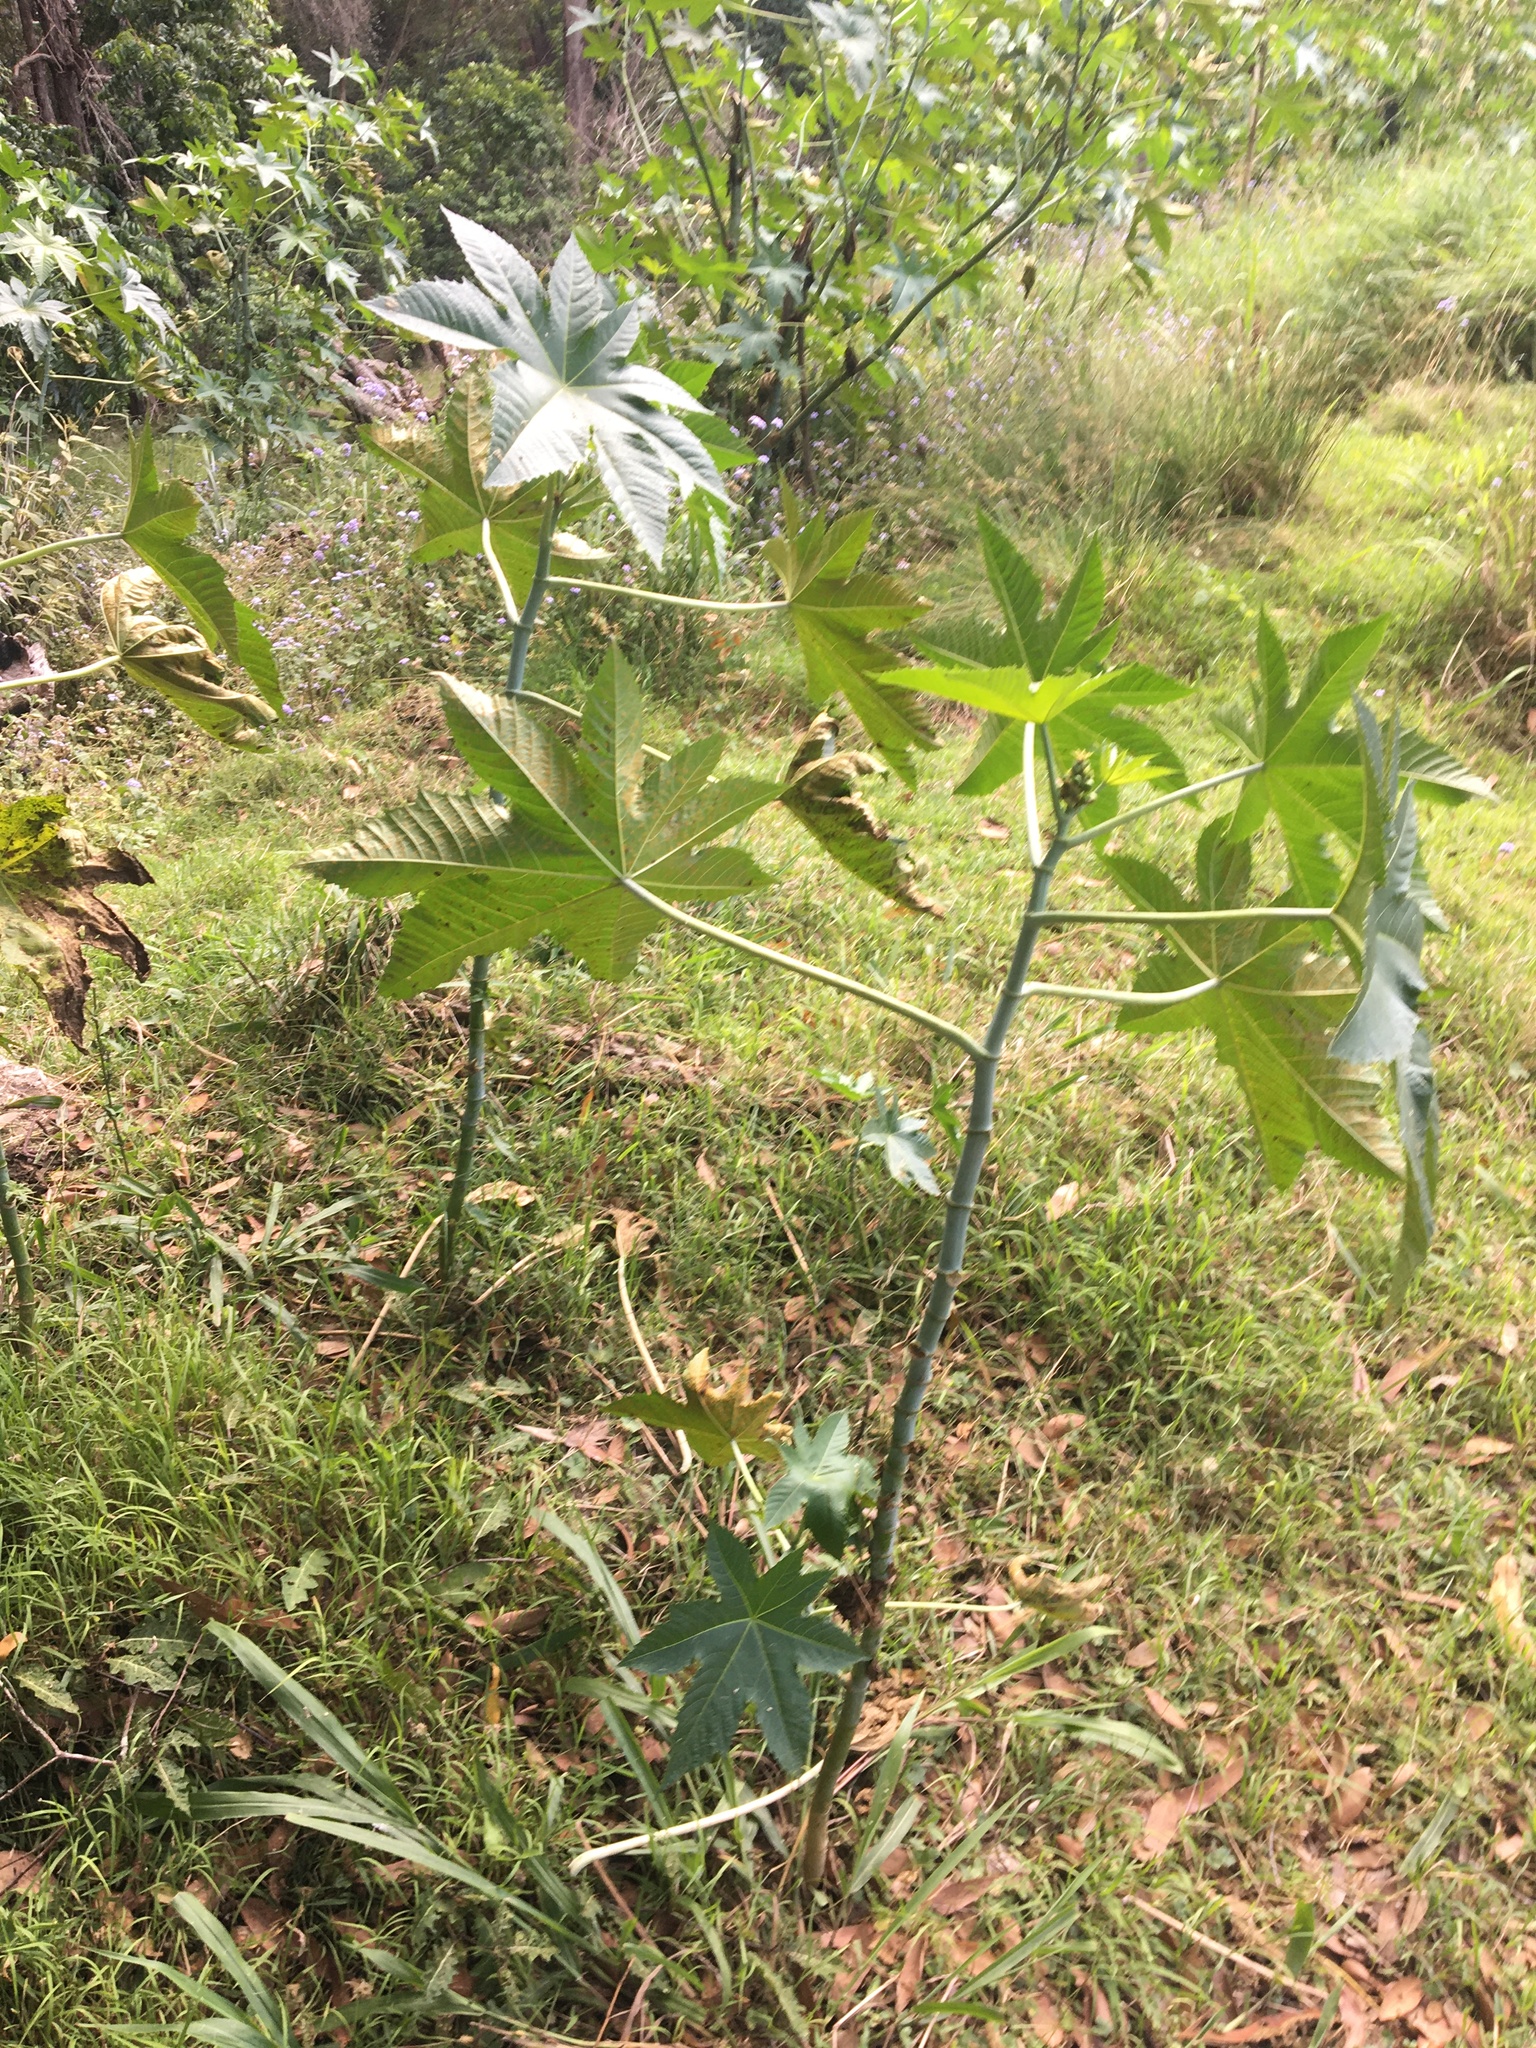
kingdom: Plantae
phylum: Tracheophyta
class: Magnoliopsida
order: Malpighiales
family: Euphorbiaceae
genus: Ricinus
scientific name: Ricinus communis
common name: Castor-oil-plant
